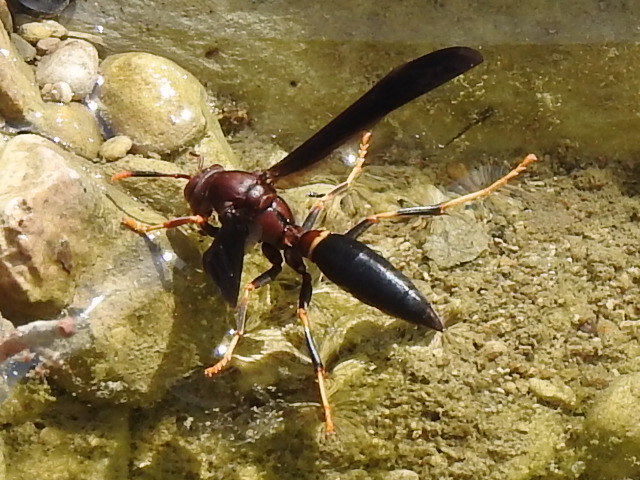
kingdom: Animalia
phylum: Arthropoda
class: Insecta
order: Hymenoptera
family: Eumenidae
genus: Polistes
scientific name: Polistes annularis
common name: Ringed paper wasp
